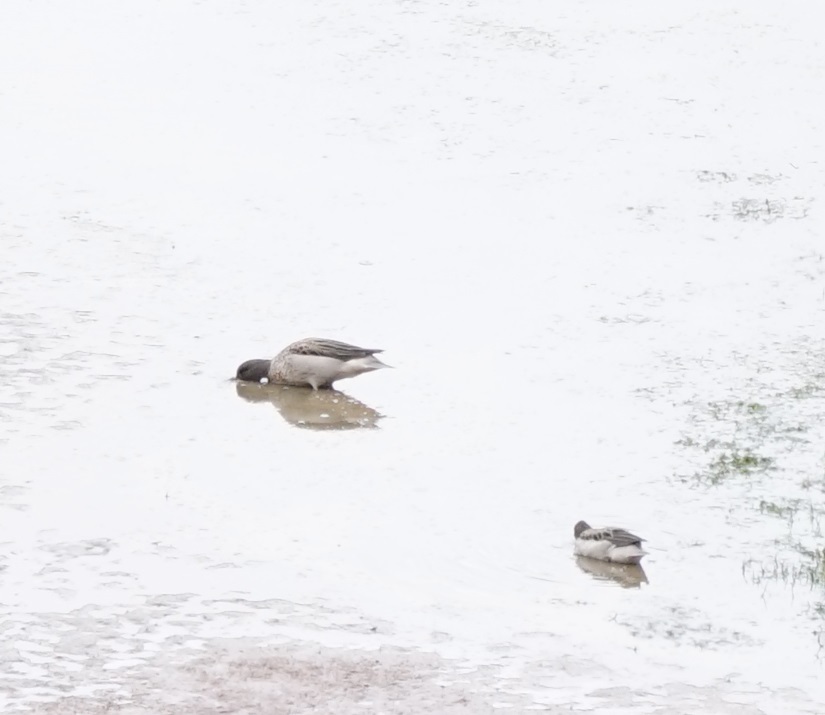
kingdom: Animalia
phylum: Chordata
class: Aves
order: Anseriformes
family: Anatidae
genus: Anas
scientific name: Anas flavirostris
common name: Yellow-billed teal
